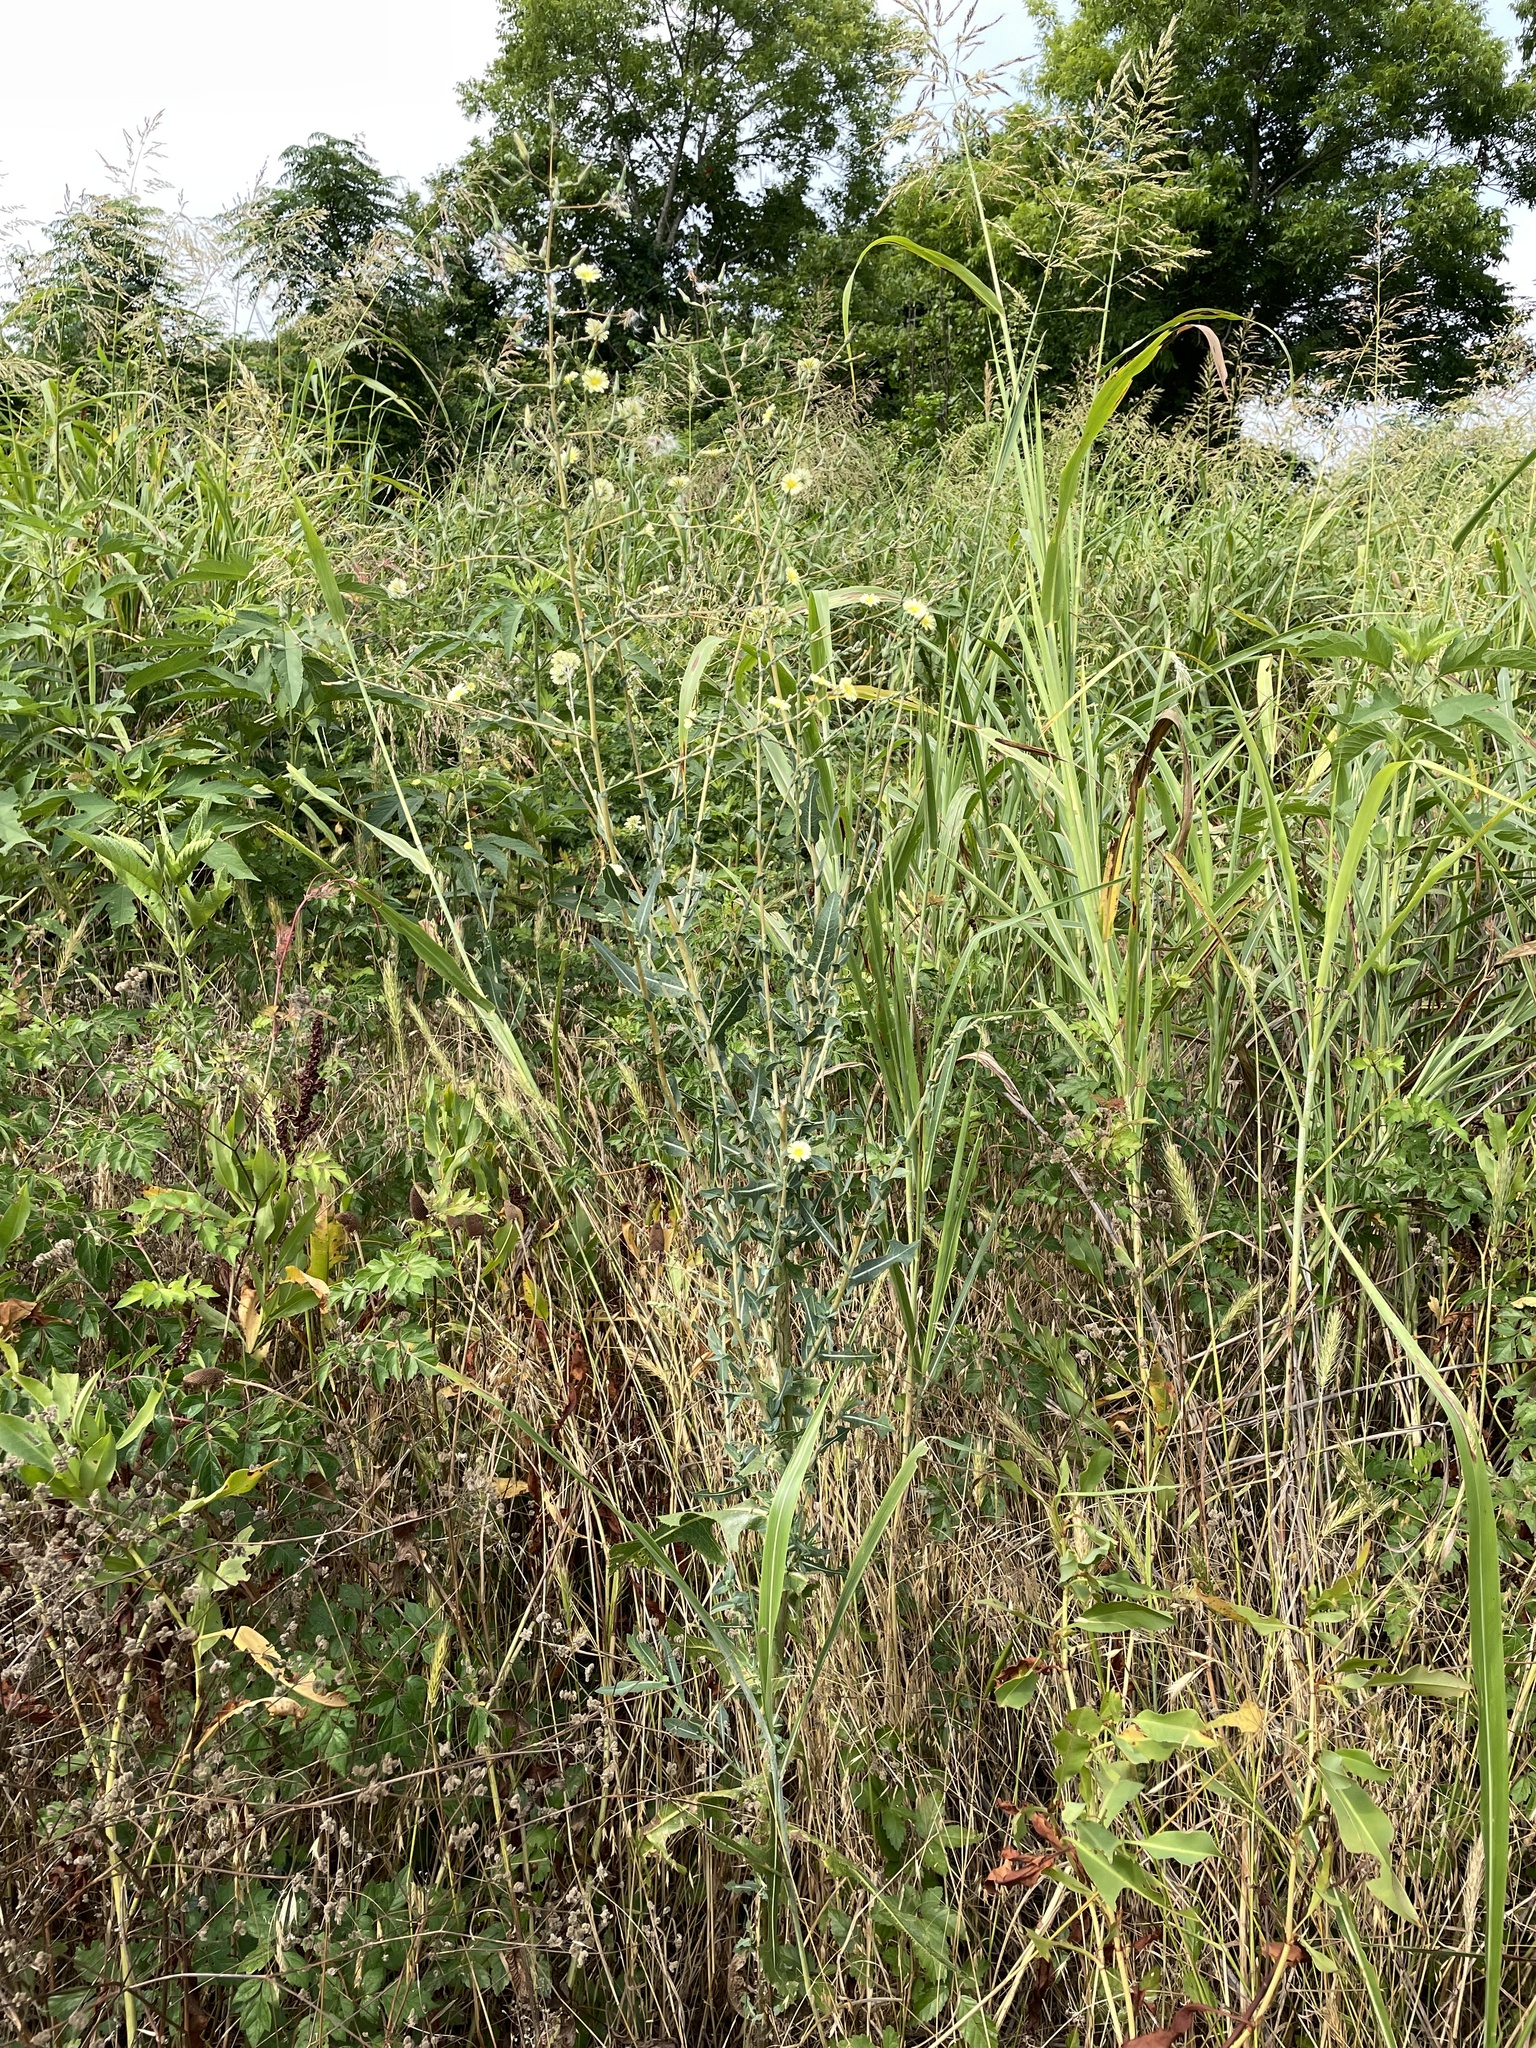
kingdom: Plantae
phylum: Tracheophyta
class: Magnoliopsida
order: Asterales
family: Asteraceae
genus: Lactuca
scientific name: Lactuca serriola
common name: Prickly lettuce
